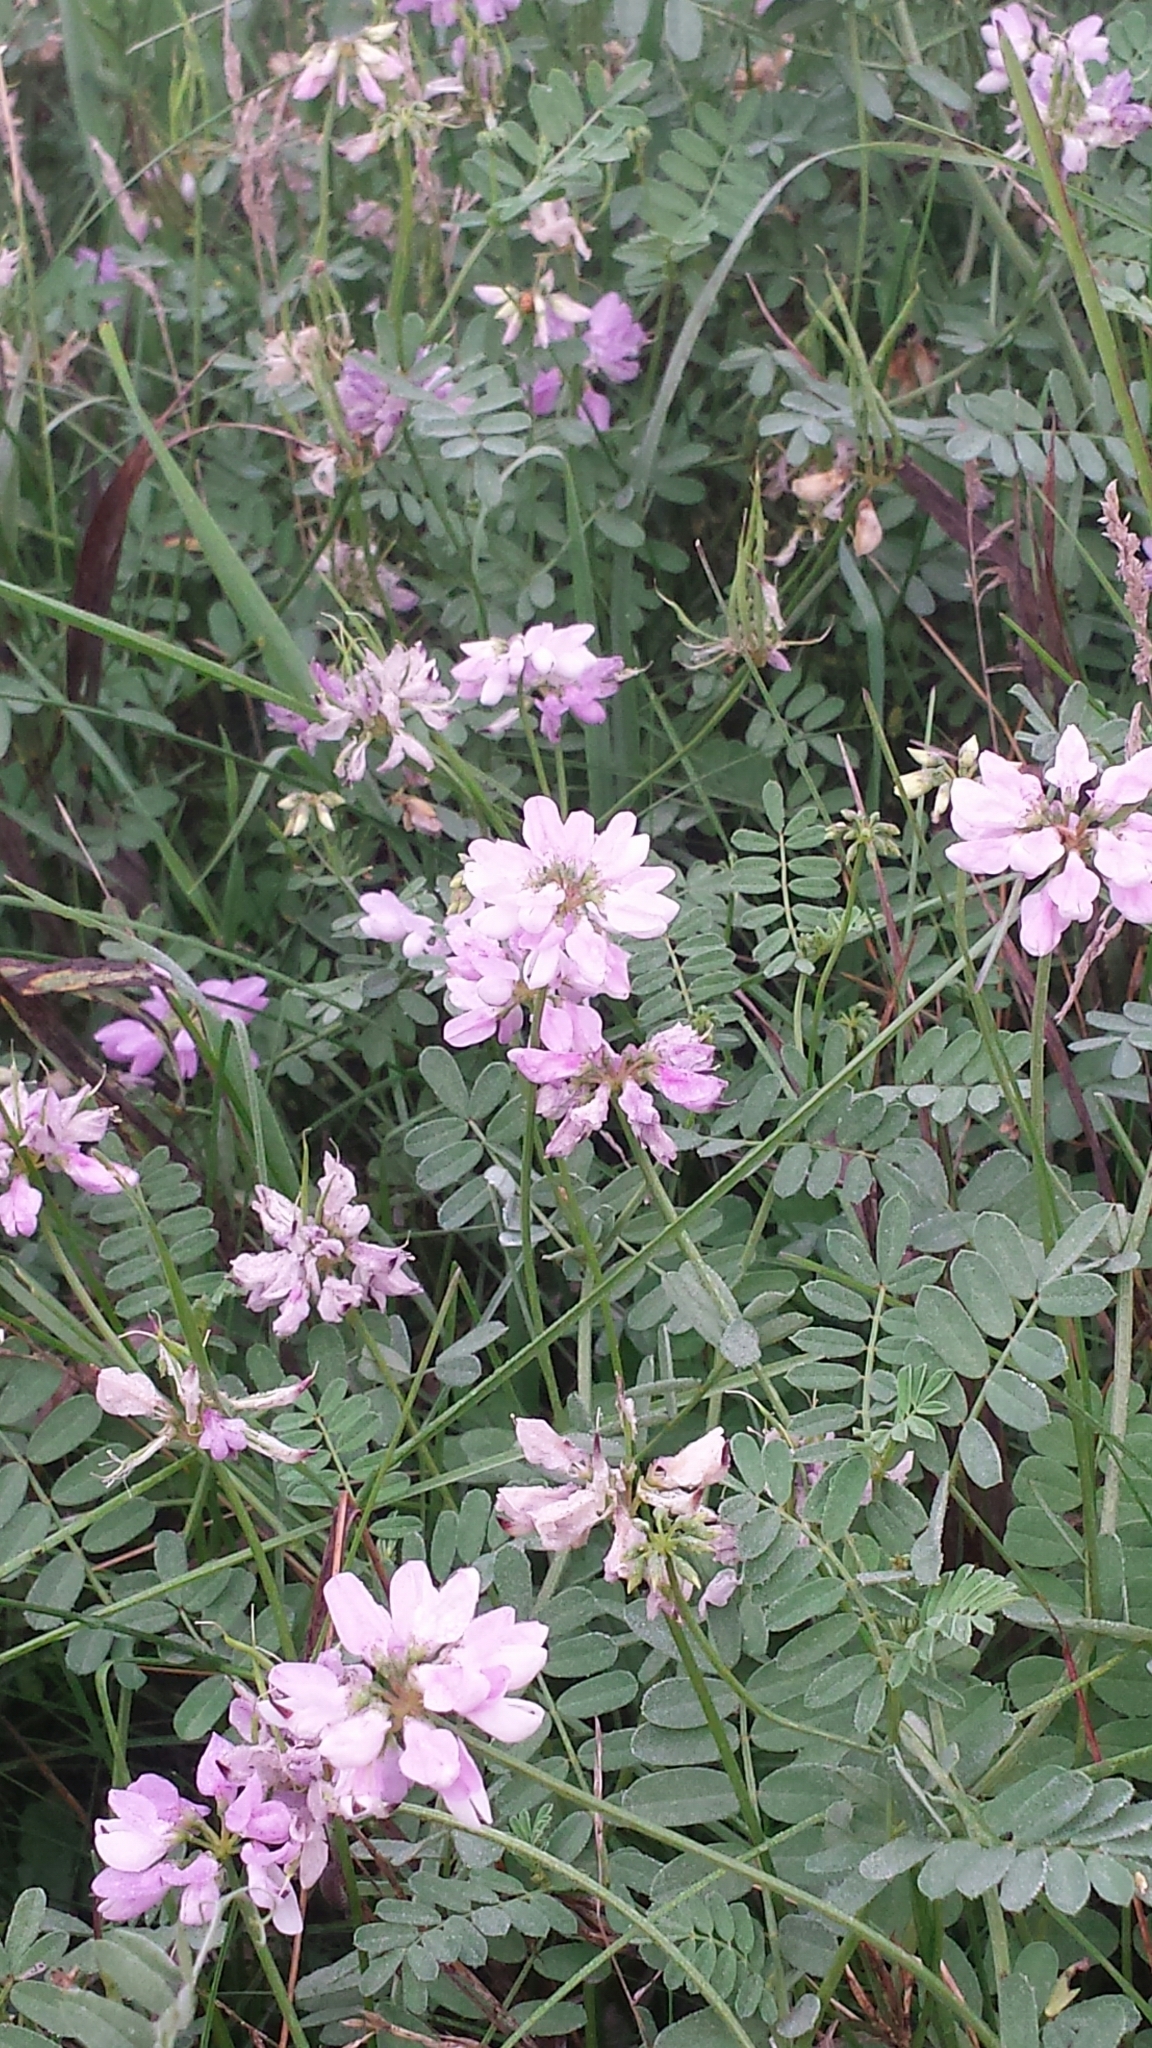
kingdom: Plantae
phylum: Tracheophyta
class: Magnoliopsida
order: Fabales
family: Fabaceae
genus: Coronilla
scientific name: Coronilla varia
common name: Crownvetch
